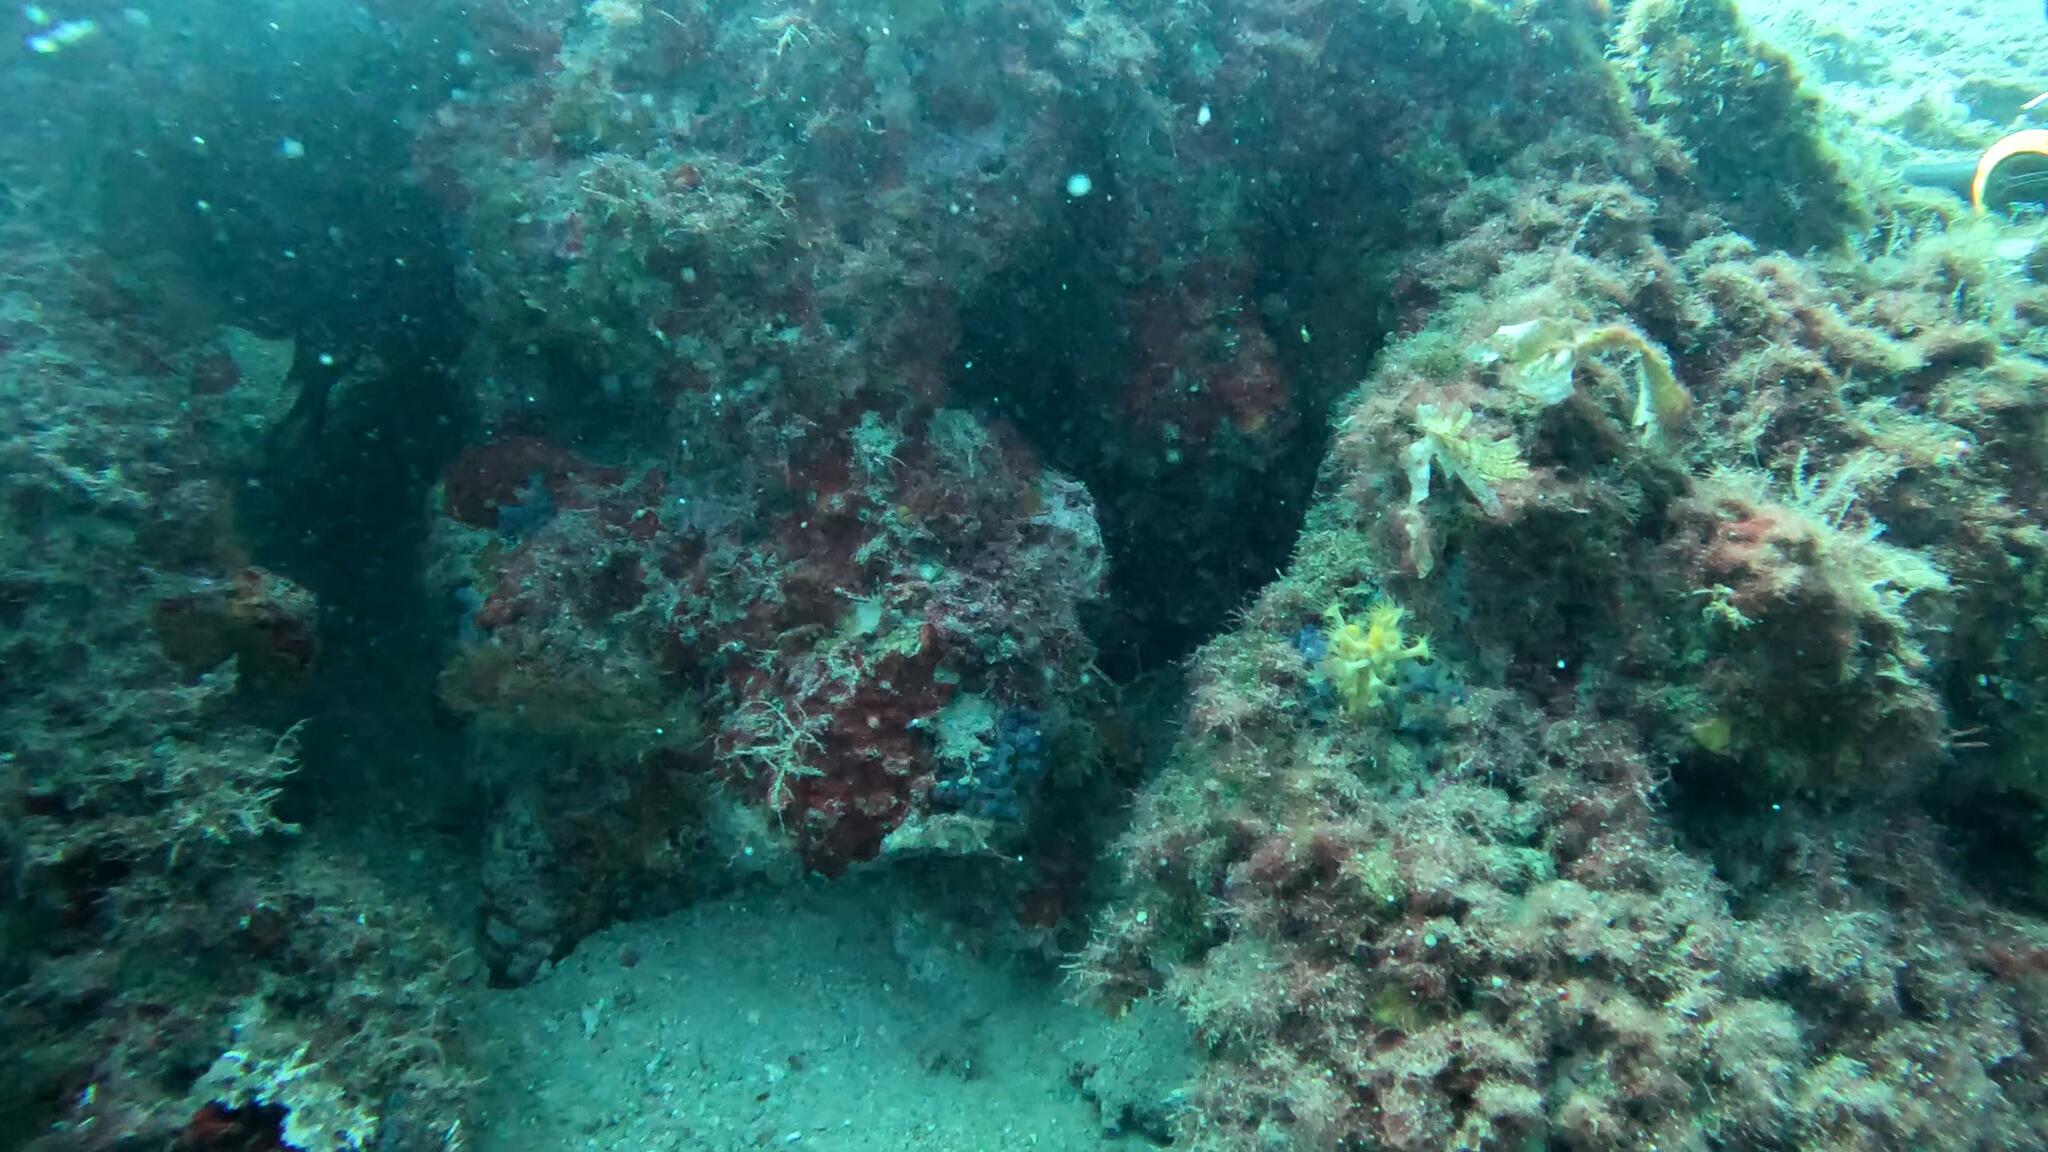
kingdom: Animalia
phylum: Cnidaria
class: Anthozoa
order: Zoantharia
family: Parazoanthidae
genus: Parazoanthus
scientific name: Parazoanthus axinellae
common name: Yellow cluster anemone
